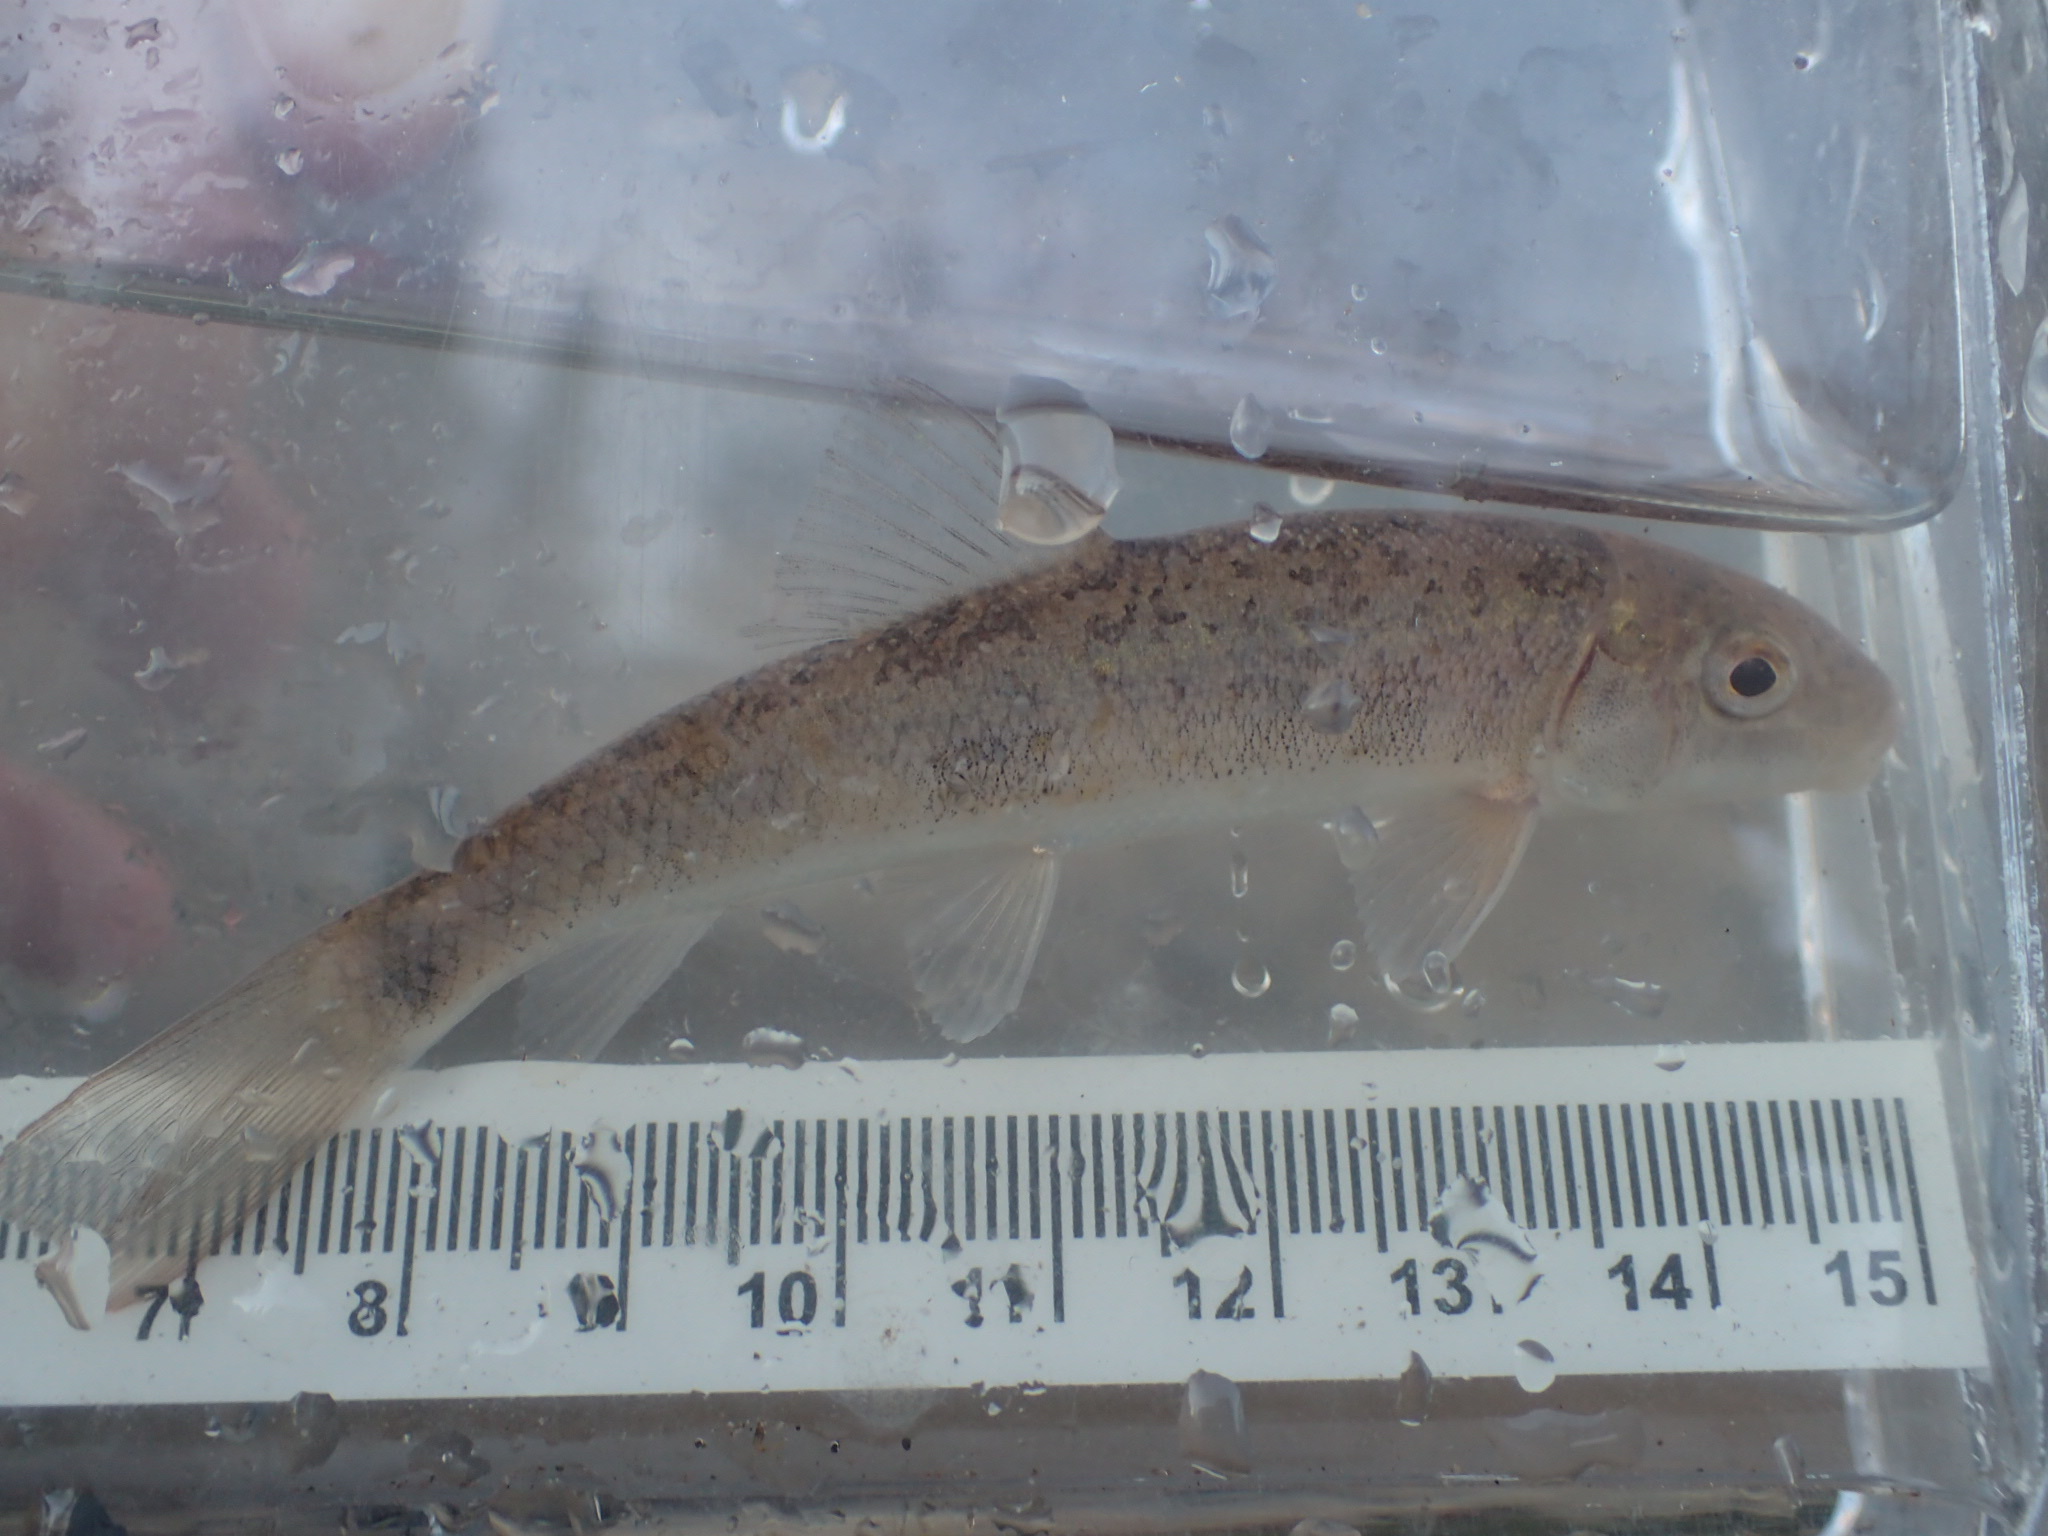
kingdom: Animalia
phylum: Chordata
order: Cypriniformes
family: Catostomidae
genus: Catostomus
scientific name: Catostomus commersonii
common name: White sucker
